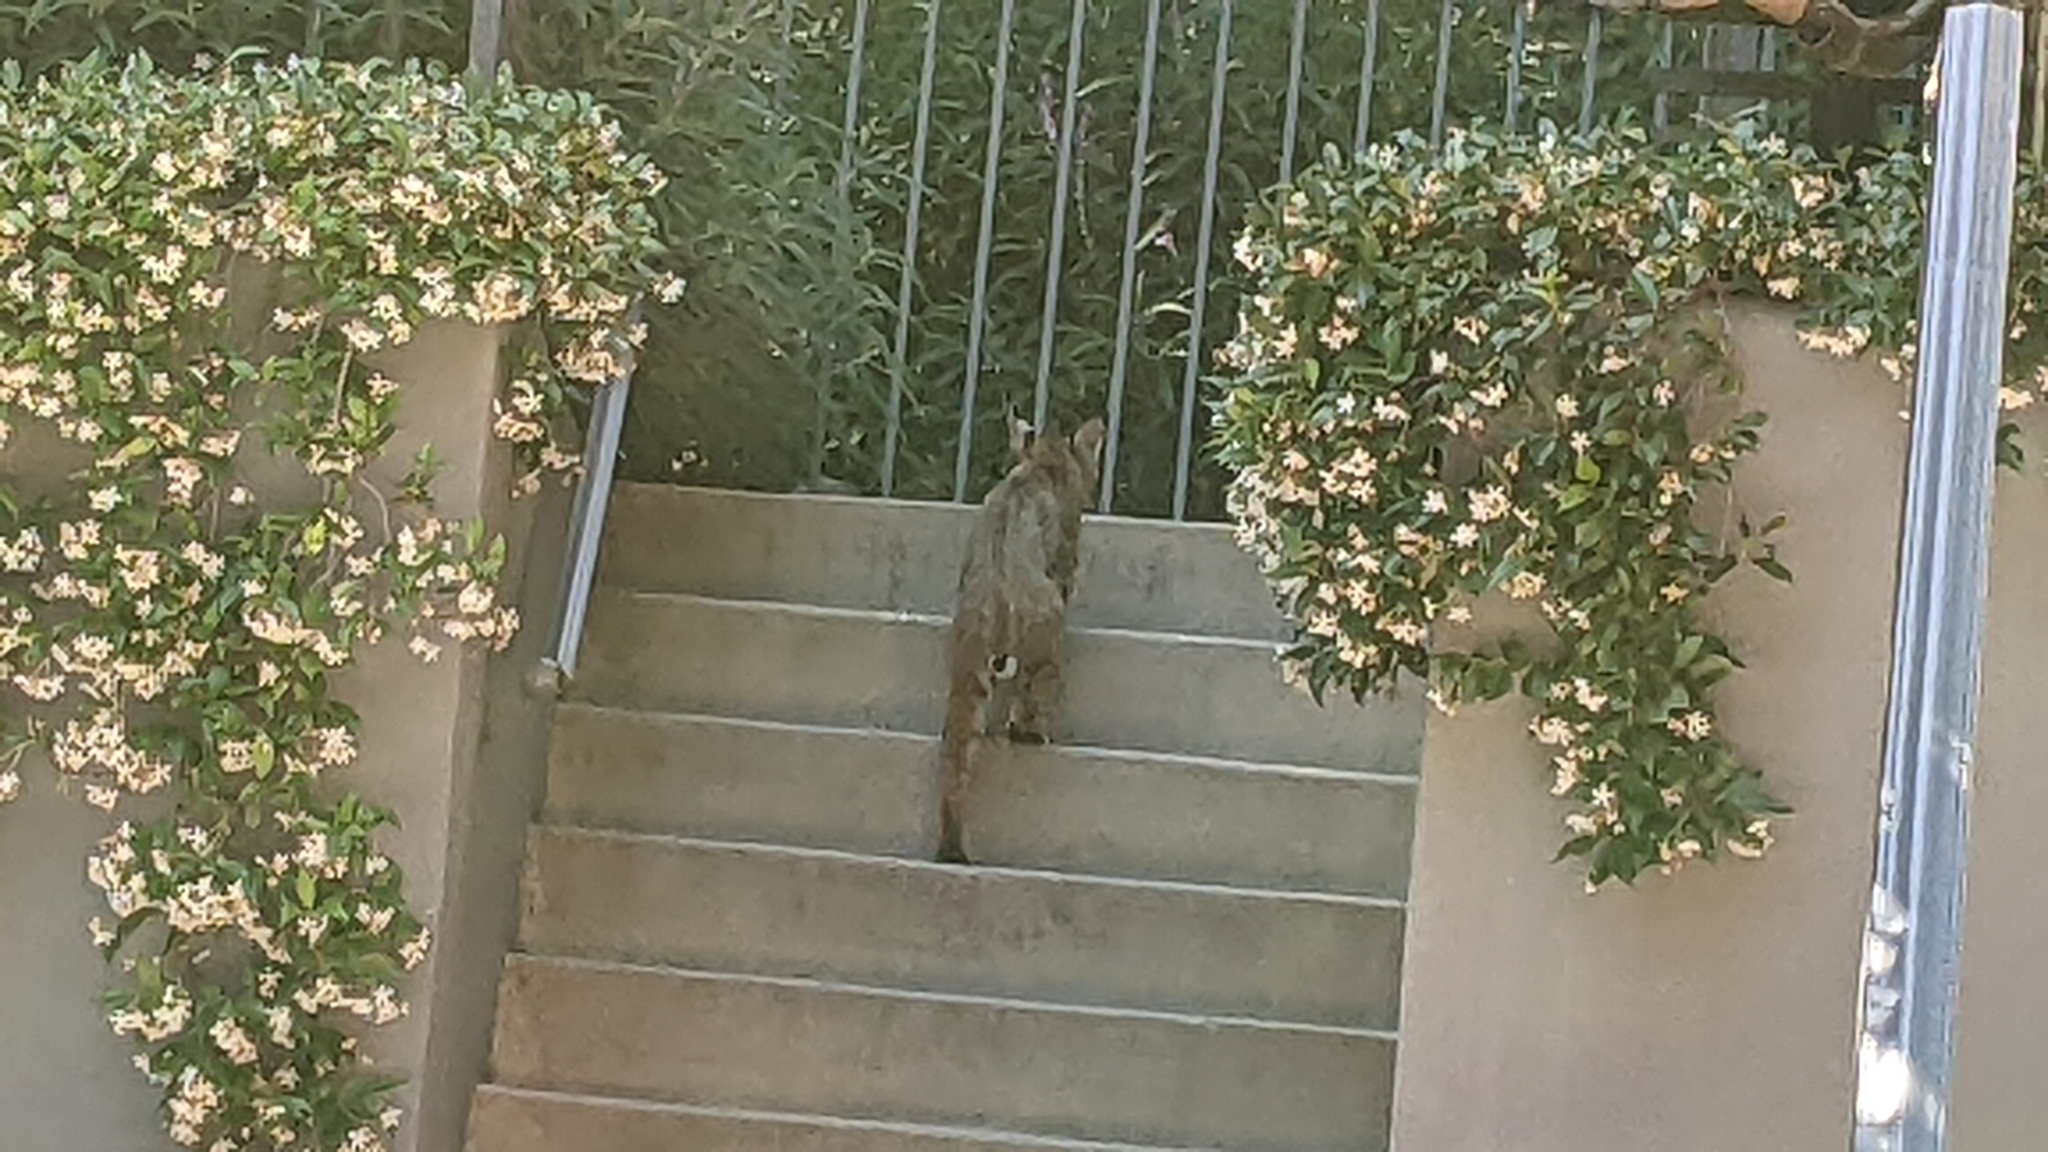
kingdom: Animalia
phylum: Chordata
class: Mammalia
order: Carnivora
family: Felidae
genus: Lynx
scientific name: Lynx rufus
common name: Bobcat
